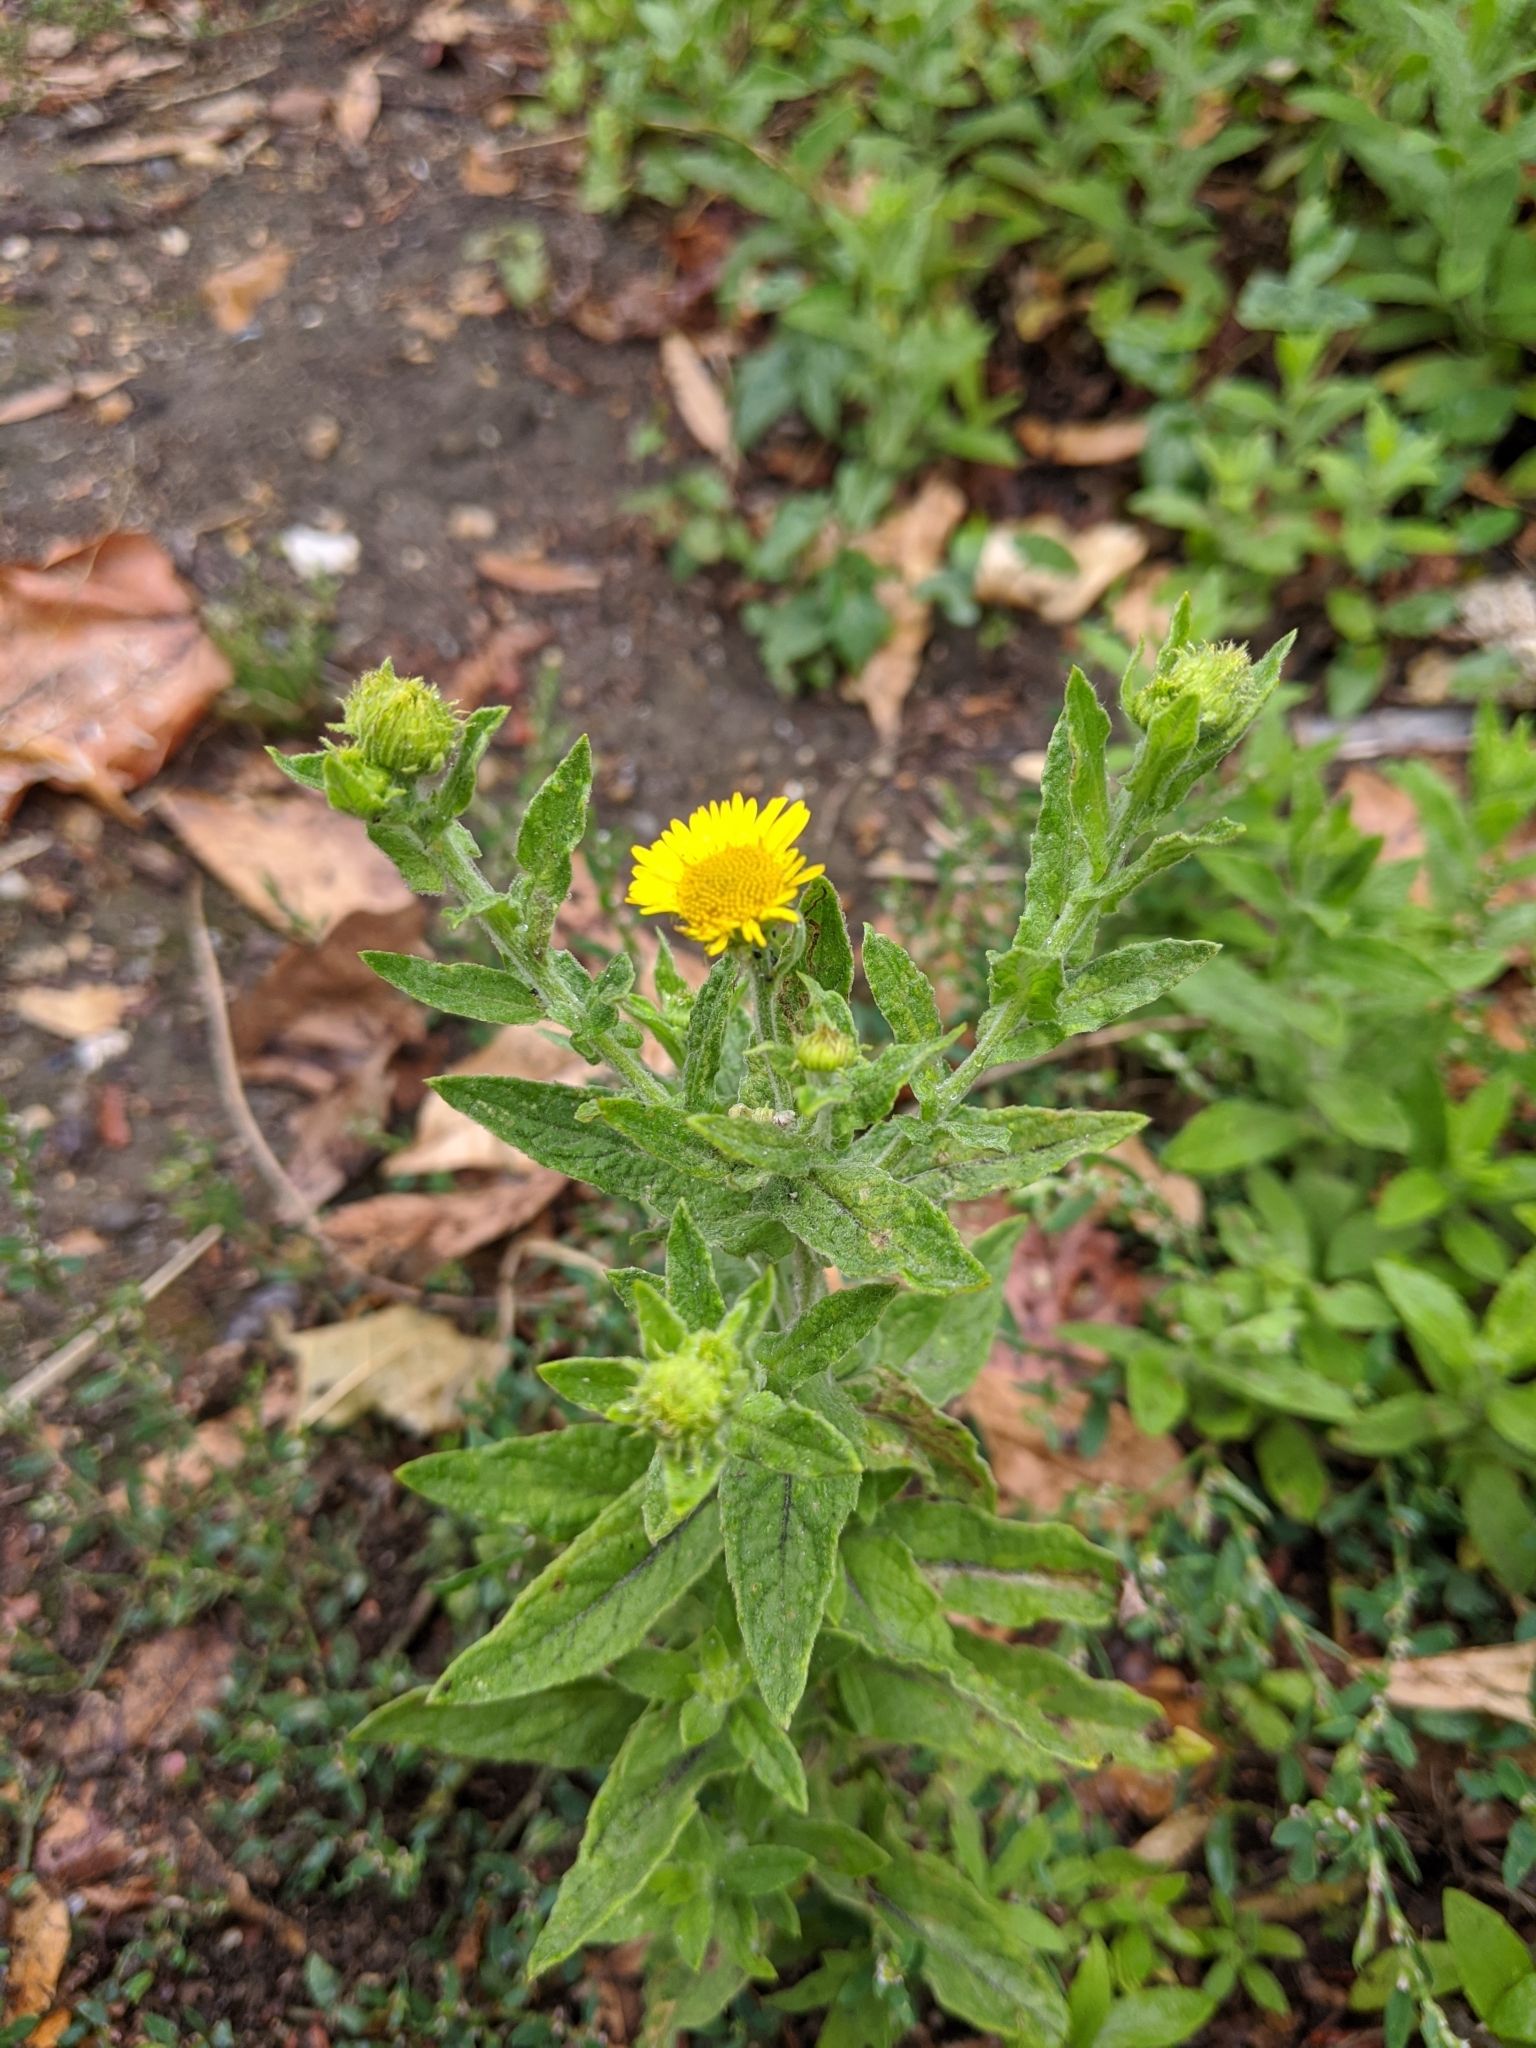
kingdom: Plantae
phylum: Tracheophyta
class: Magnoliopsida
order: Asterales
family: Asteraceae
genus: Pulicaria
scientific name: Pulicaria dysenterica
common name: Common fleabane
